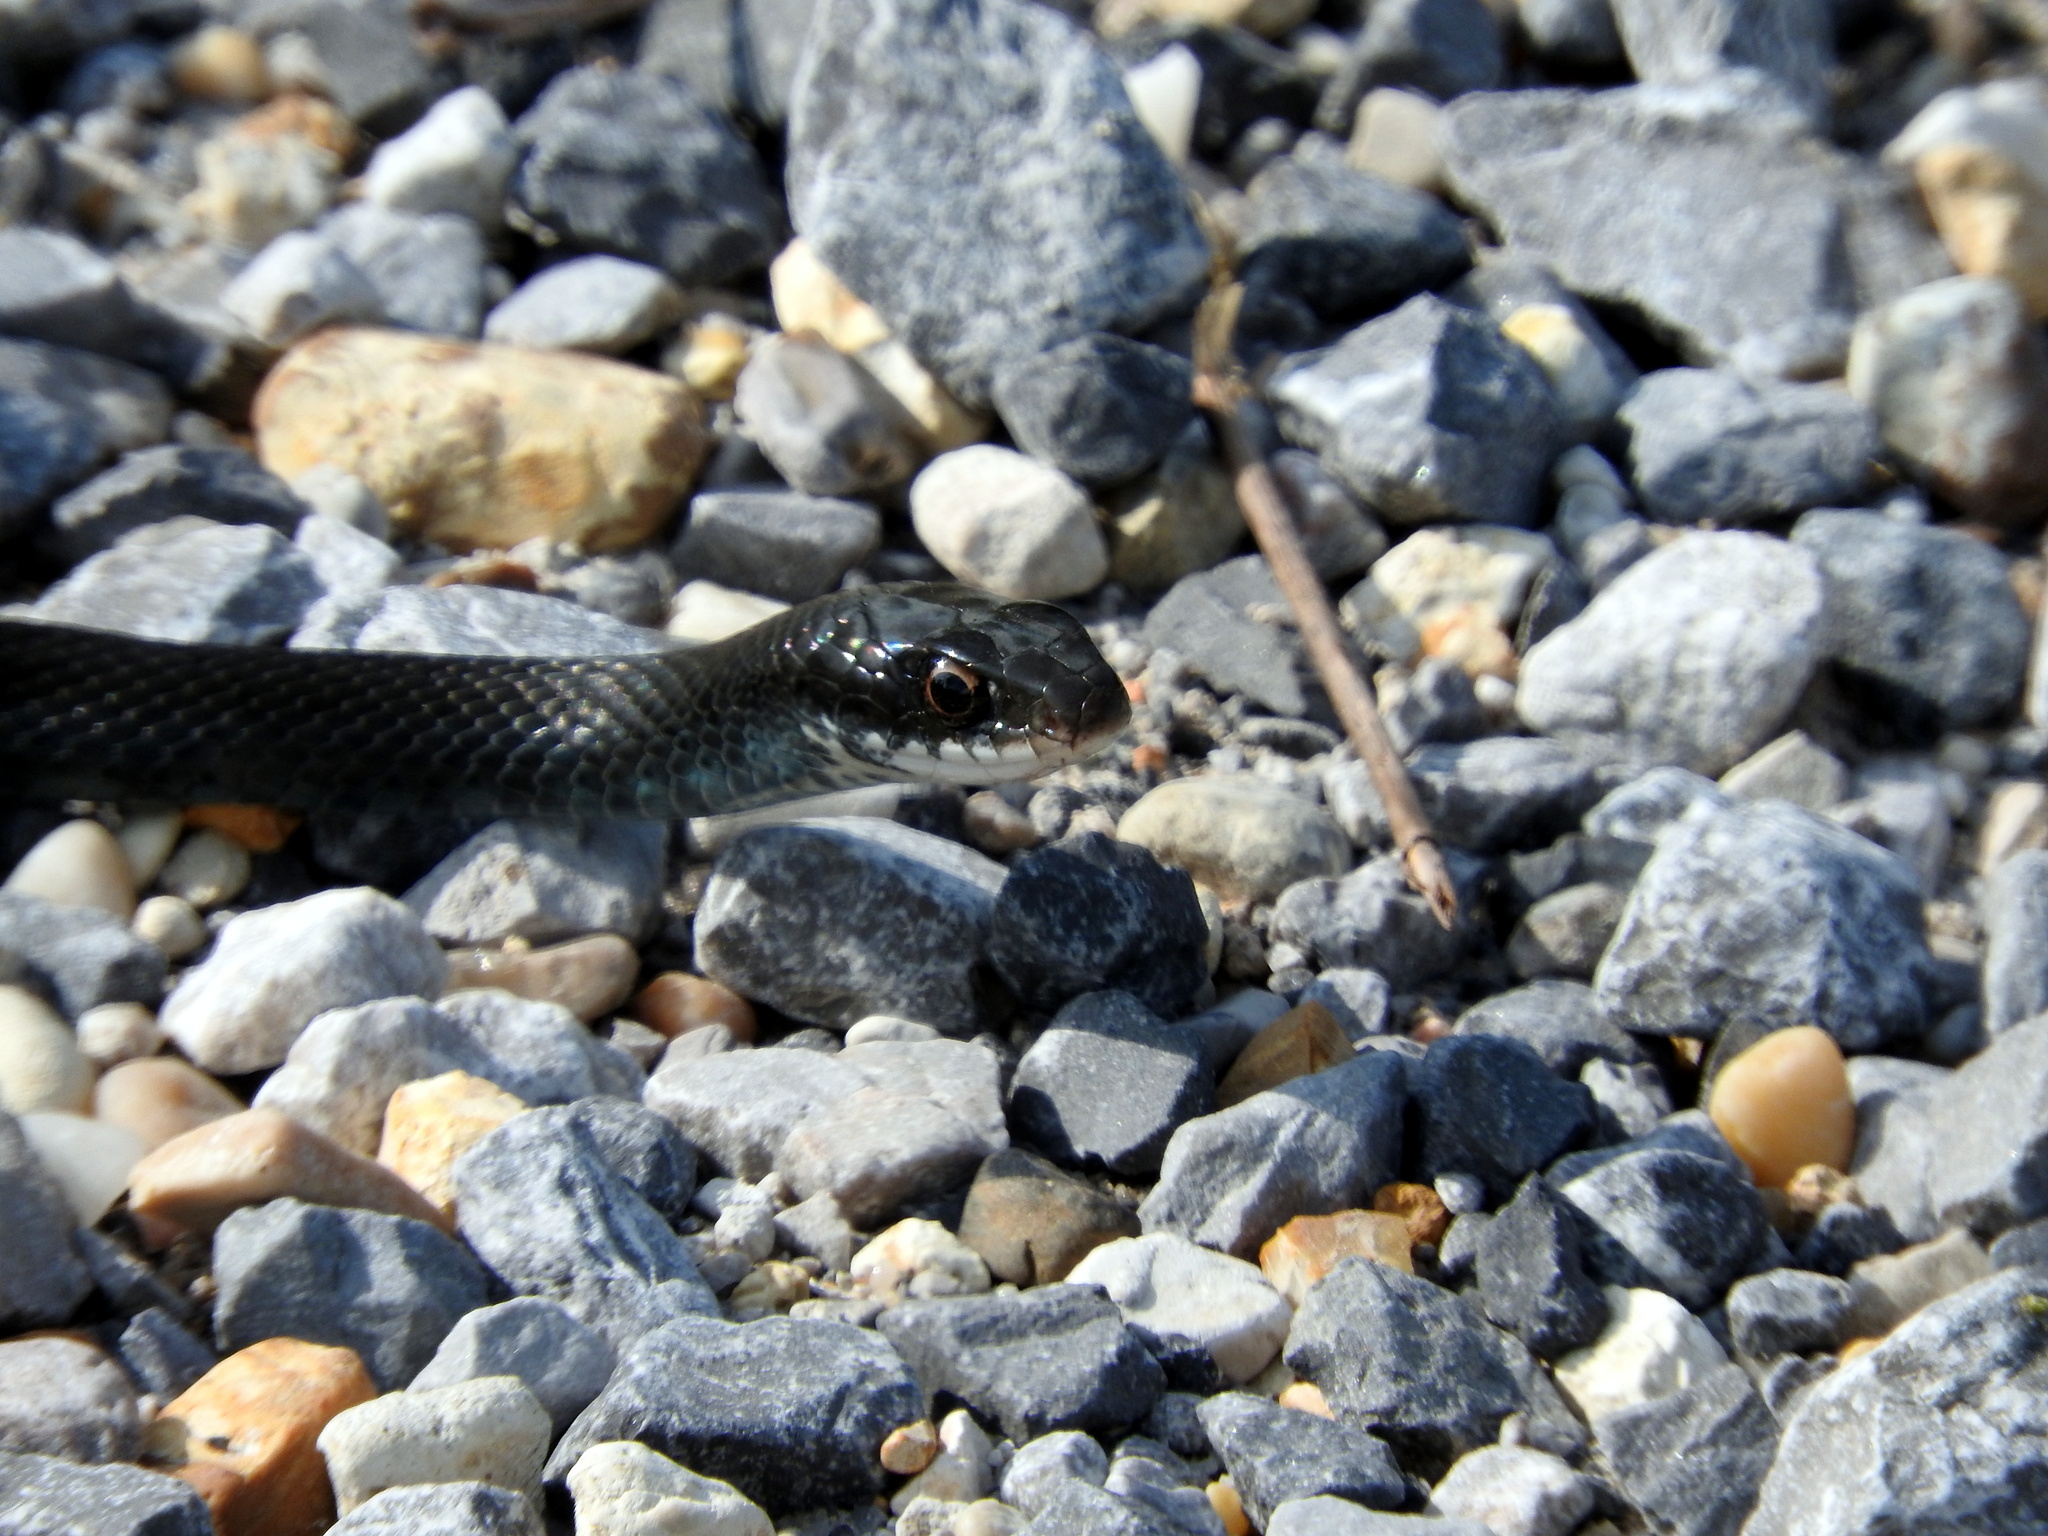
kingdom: Animalia
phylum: Chordata
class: Squamata
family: Colubridae
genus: Coluber
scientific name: Coluber constrictor
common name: Eastern racer
